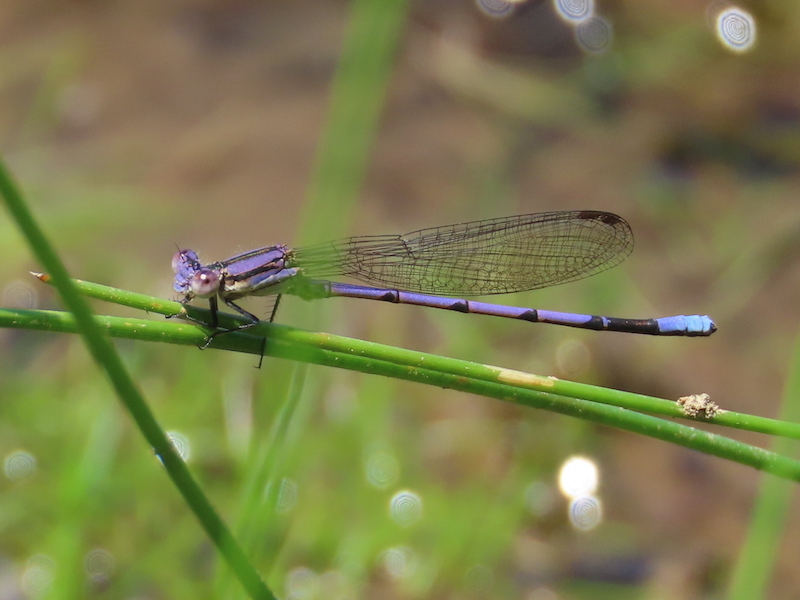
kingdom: Animalia
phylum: Arthropoda
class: Insecta
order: Odonata
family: Coenagrionidae
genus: Argia
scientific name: Argia fumipennis
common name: Variable dancer
